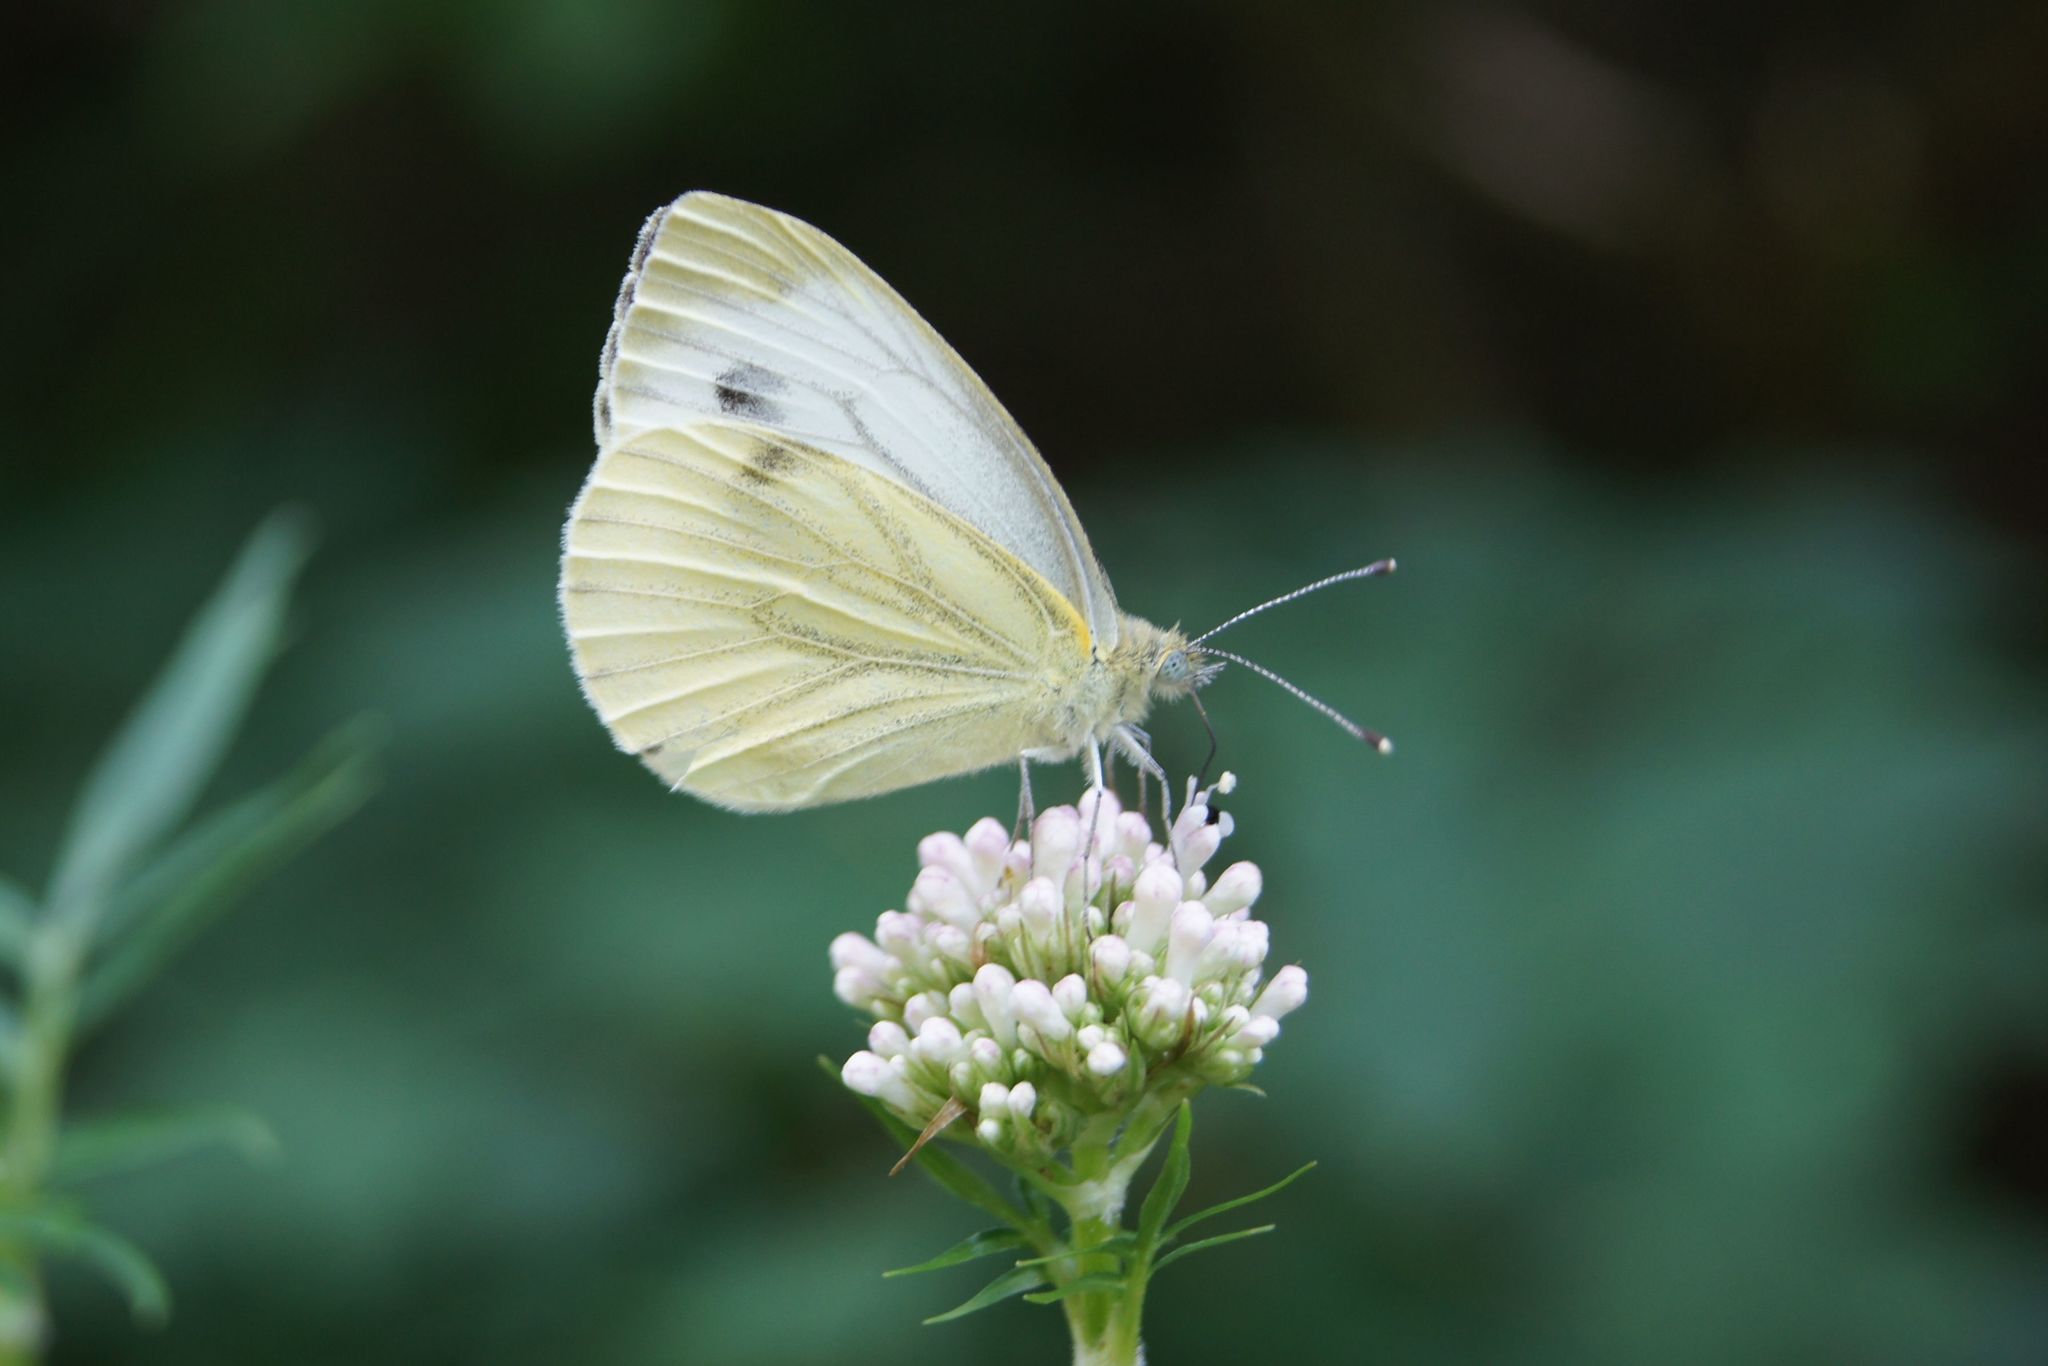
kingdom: Animalia
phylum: Arthropoda
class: Insecta
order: Lepidoptera
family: Pieridae
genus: Pieris
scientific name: Pieris napi
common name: Green-veined white
